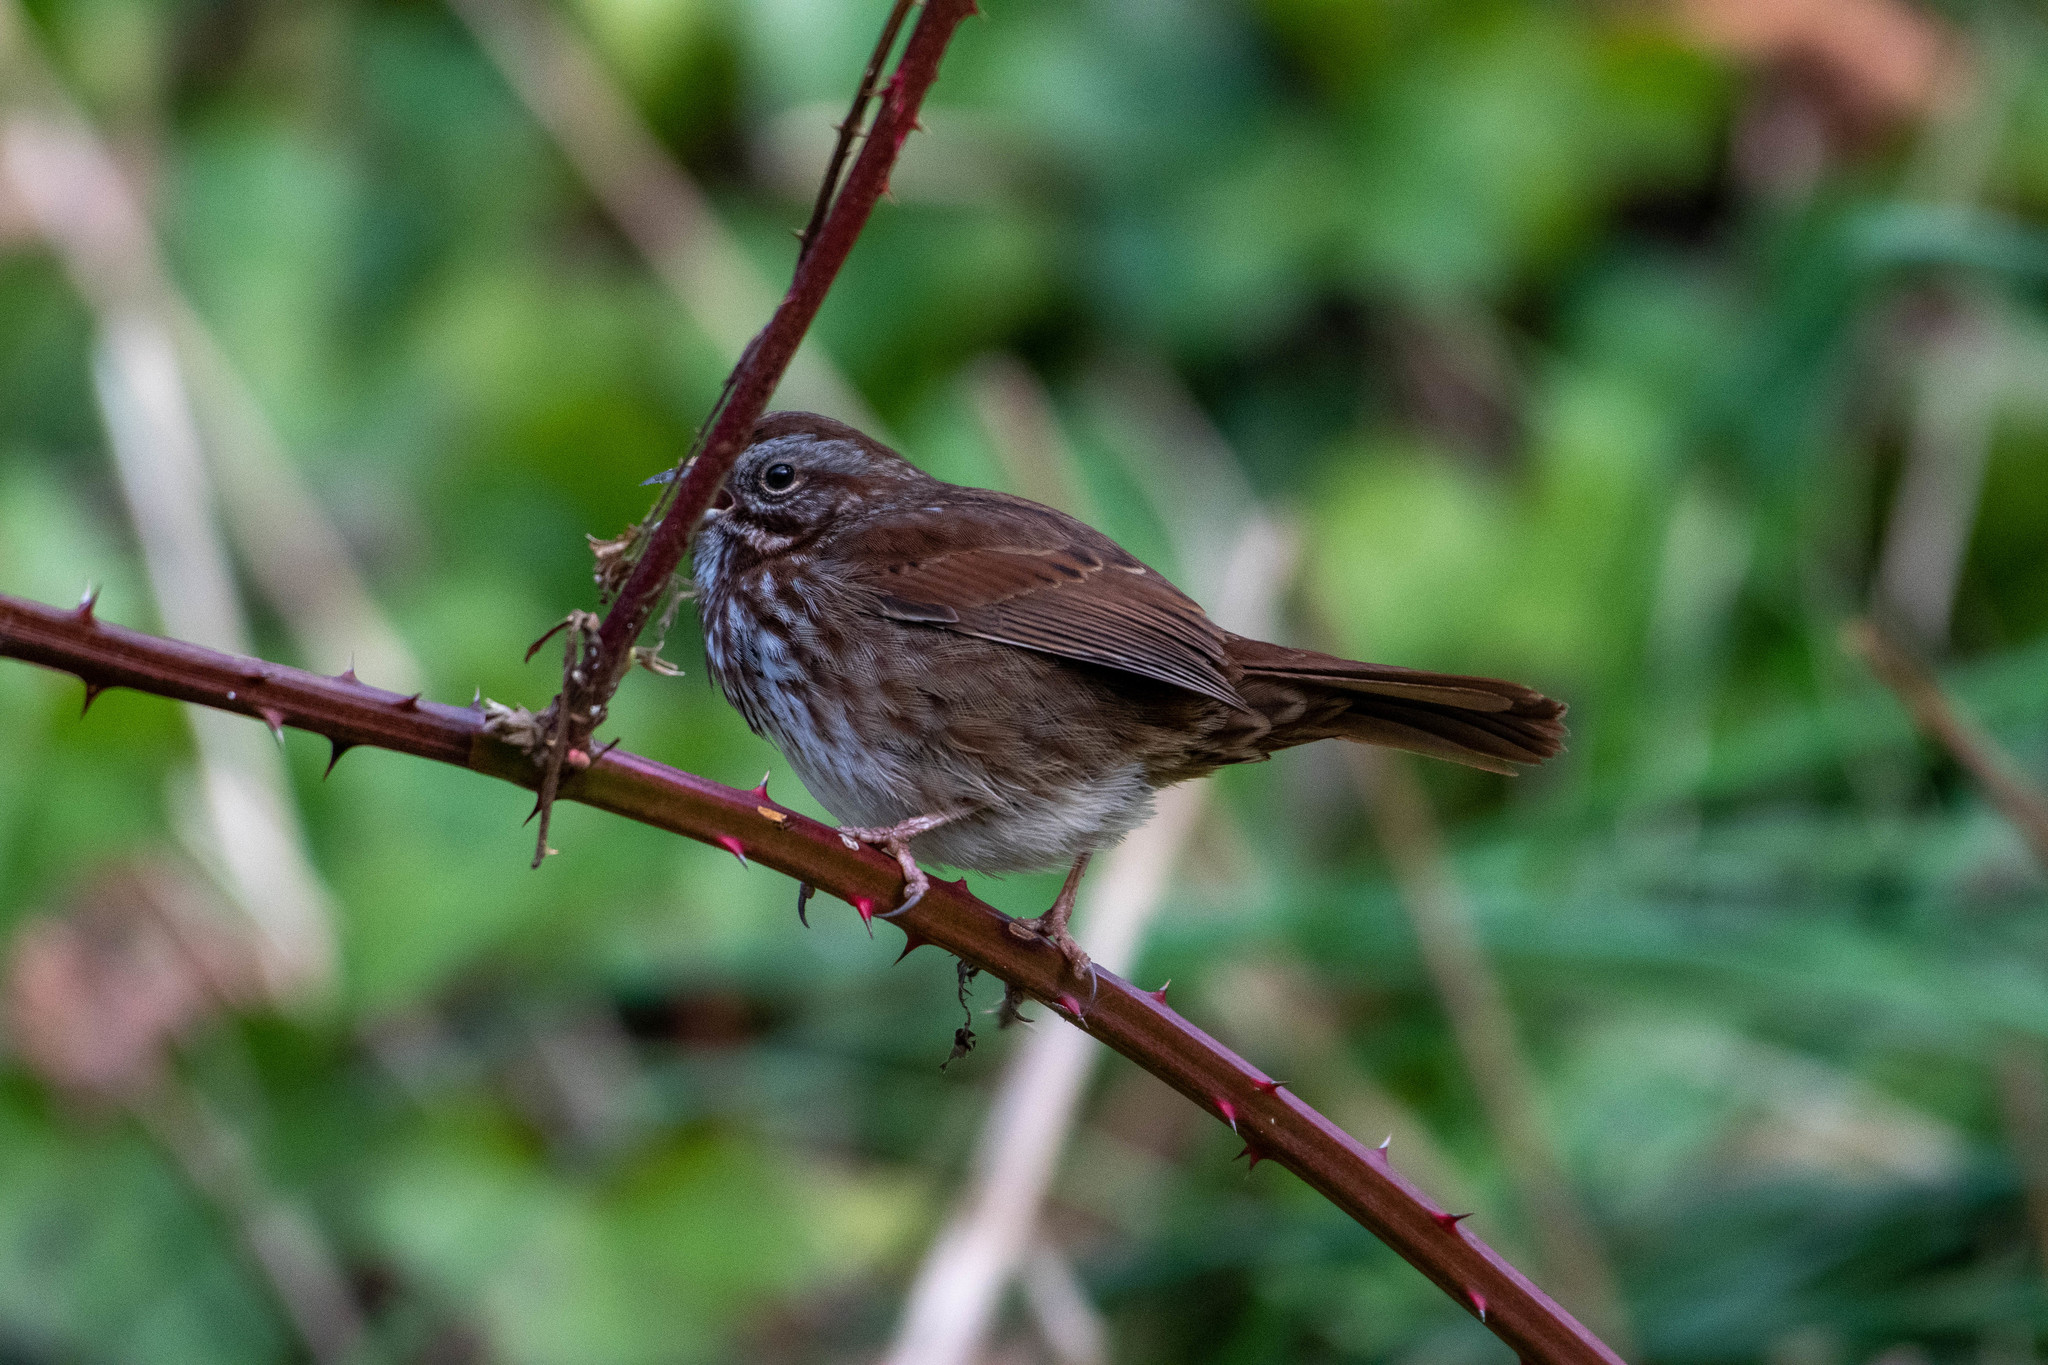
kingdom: Animalia
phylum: Chordata
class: Aves
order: Passeriformes
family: Passerellidae
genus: Melospiza
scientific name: Melospiza melodia
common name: Song sparrow
